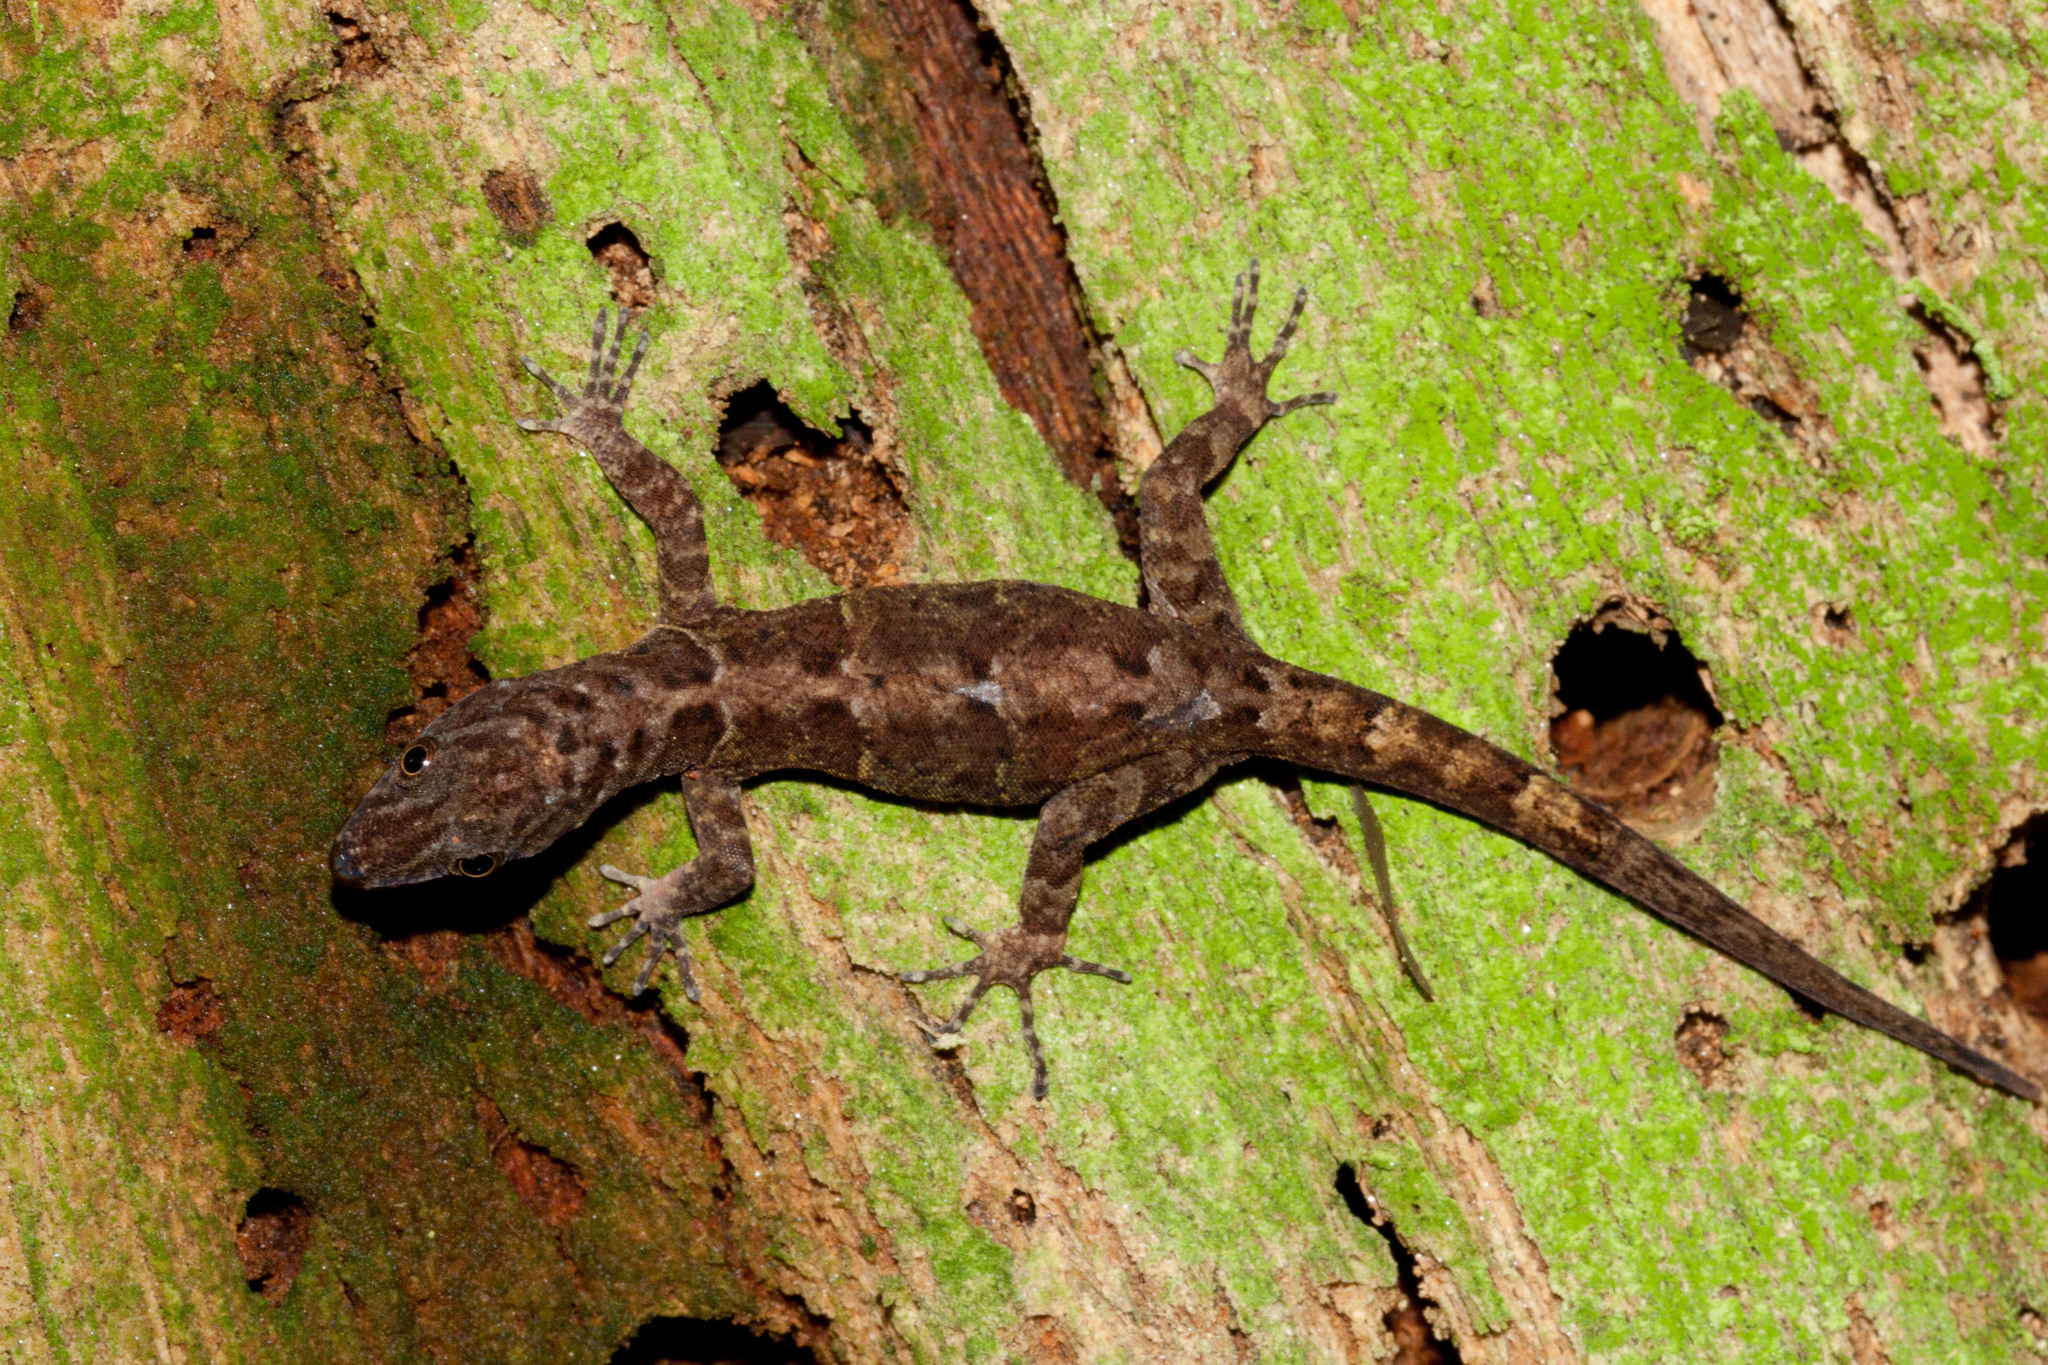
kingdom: Animalia
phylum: Chordata
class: Squamata
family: Sphaerodactylidae
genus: Gonatodes
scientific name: Gonatodes ceciliae
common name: Brilliant south american gecko
